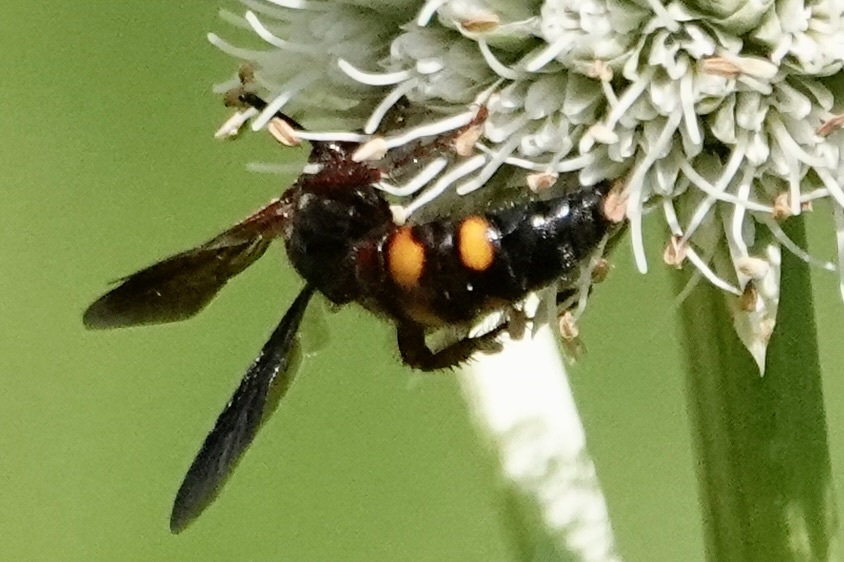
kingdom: Animalia
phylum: Arthropoda
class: Insecta
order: Hymenoptera
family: Scoliidae
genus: Scolia
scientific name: Scolia nobilitata
